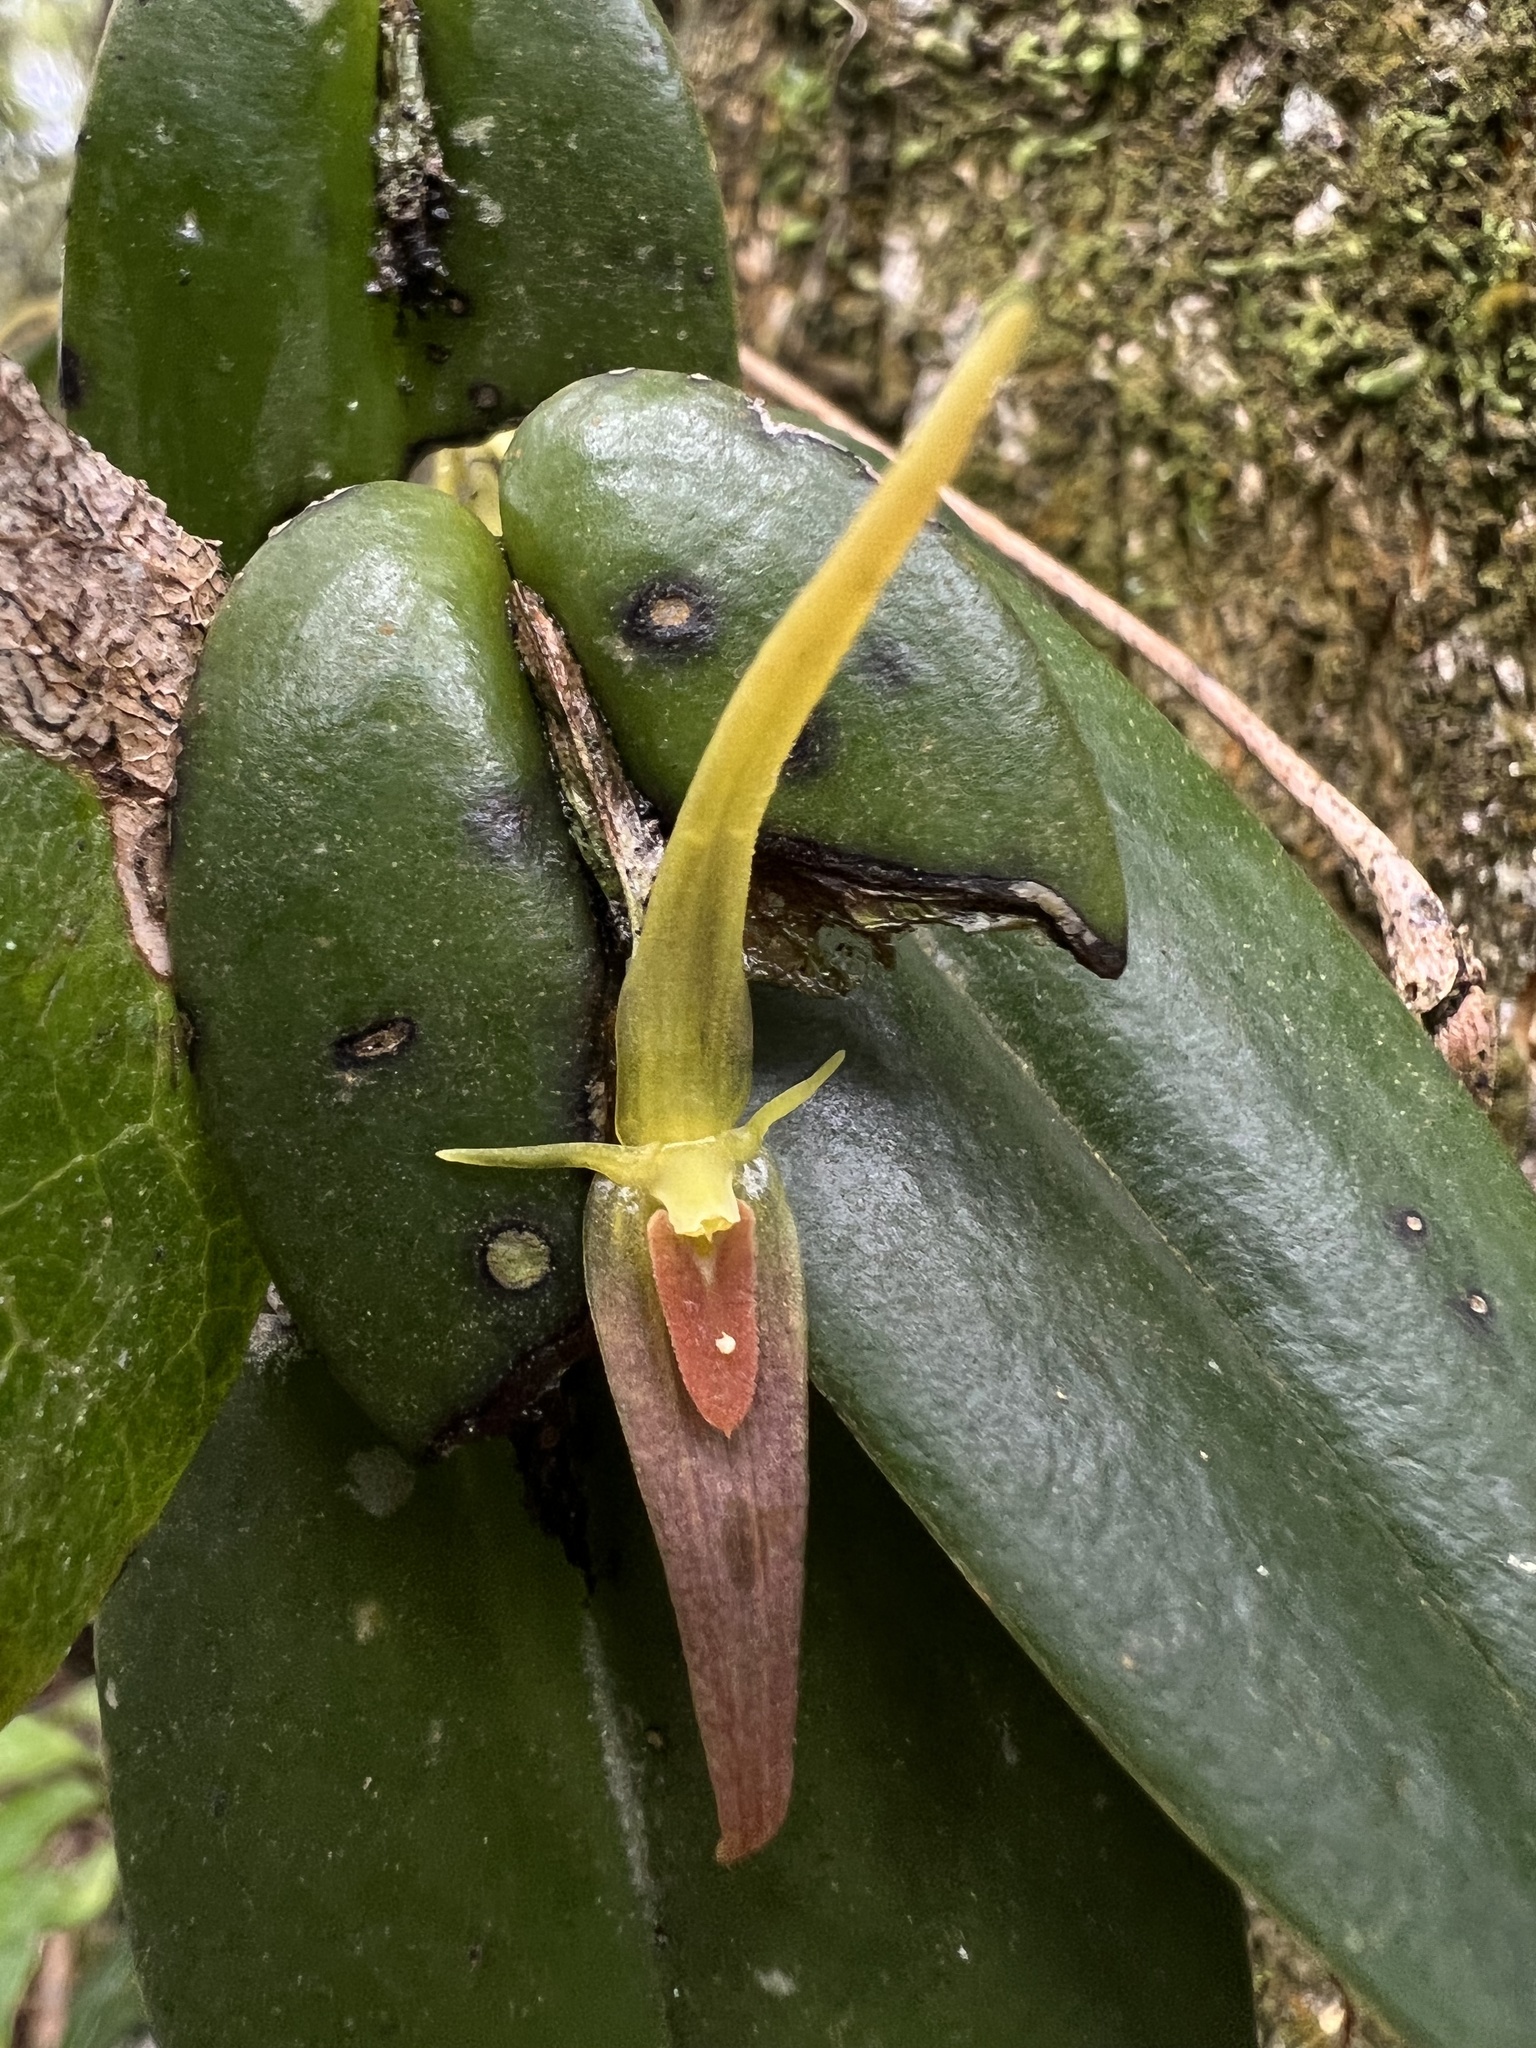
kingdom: Plantae
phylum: Tracheophyta
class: Liliopsida
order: Asparagales
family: Orchidaceae
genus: Pleurothallis
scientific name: Pleurothallis microcardia
